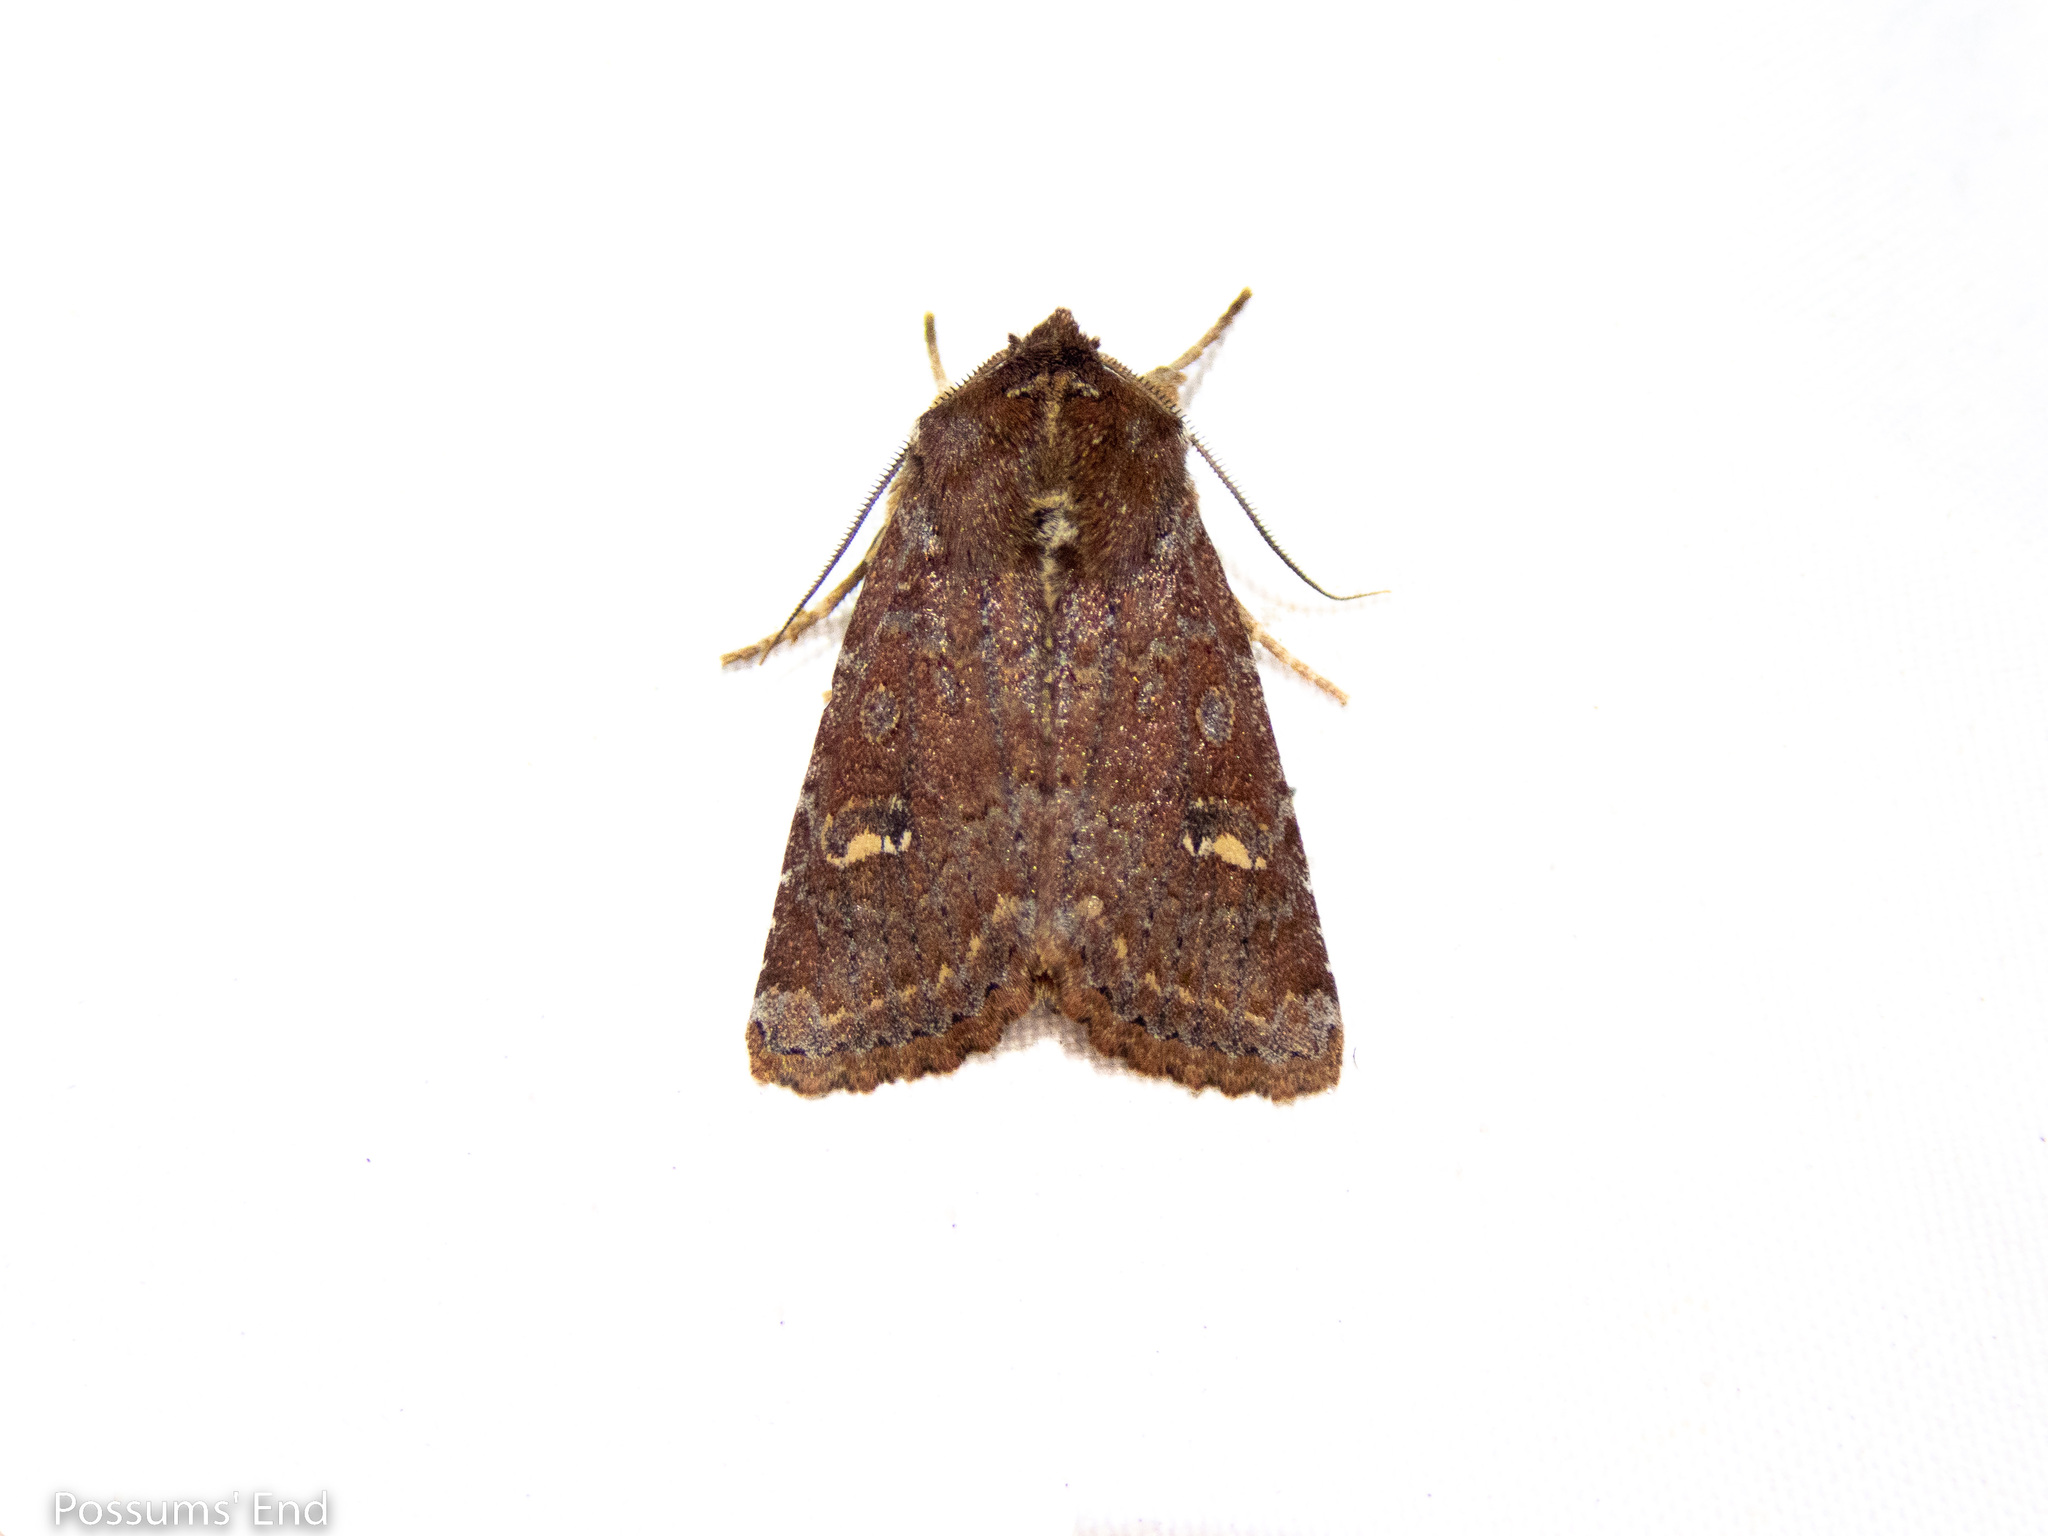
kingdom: Animalia
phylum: Arthropoda
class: Insecta
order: Lepidoptera
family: Noctuidae
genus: Ichneutica
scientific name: Ichneutica agorastis
